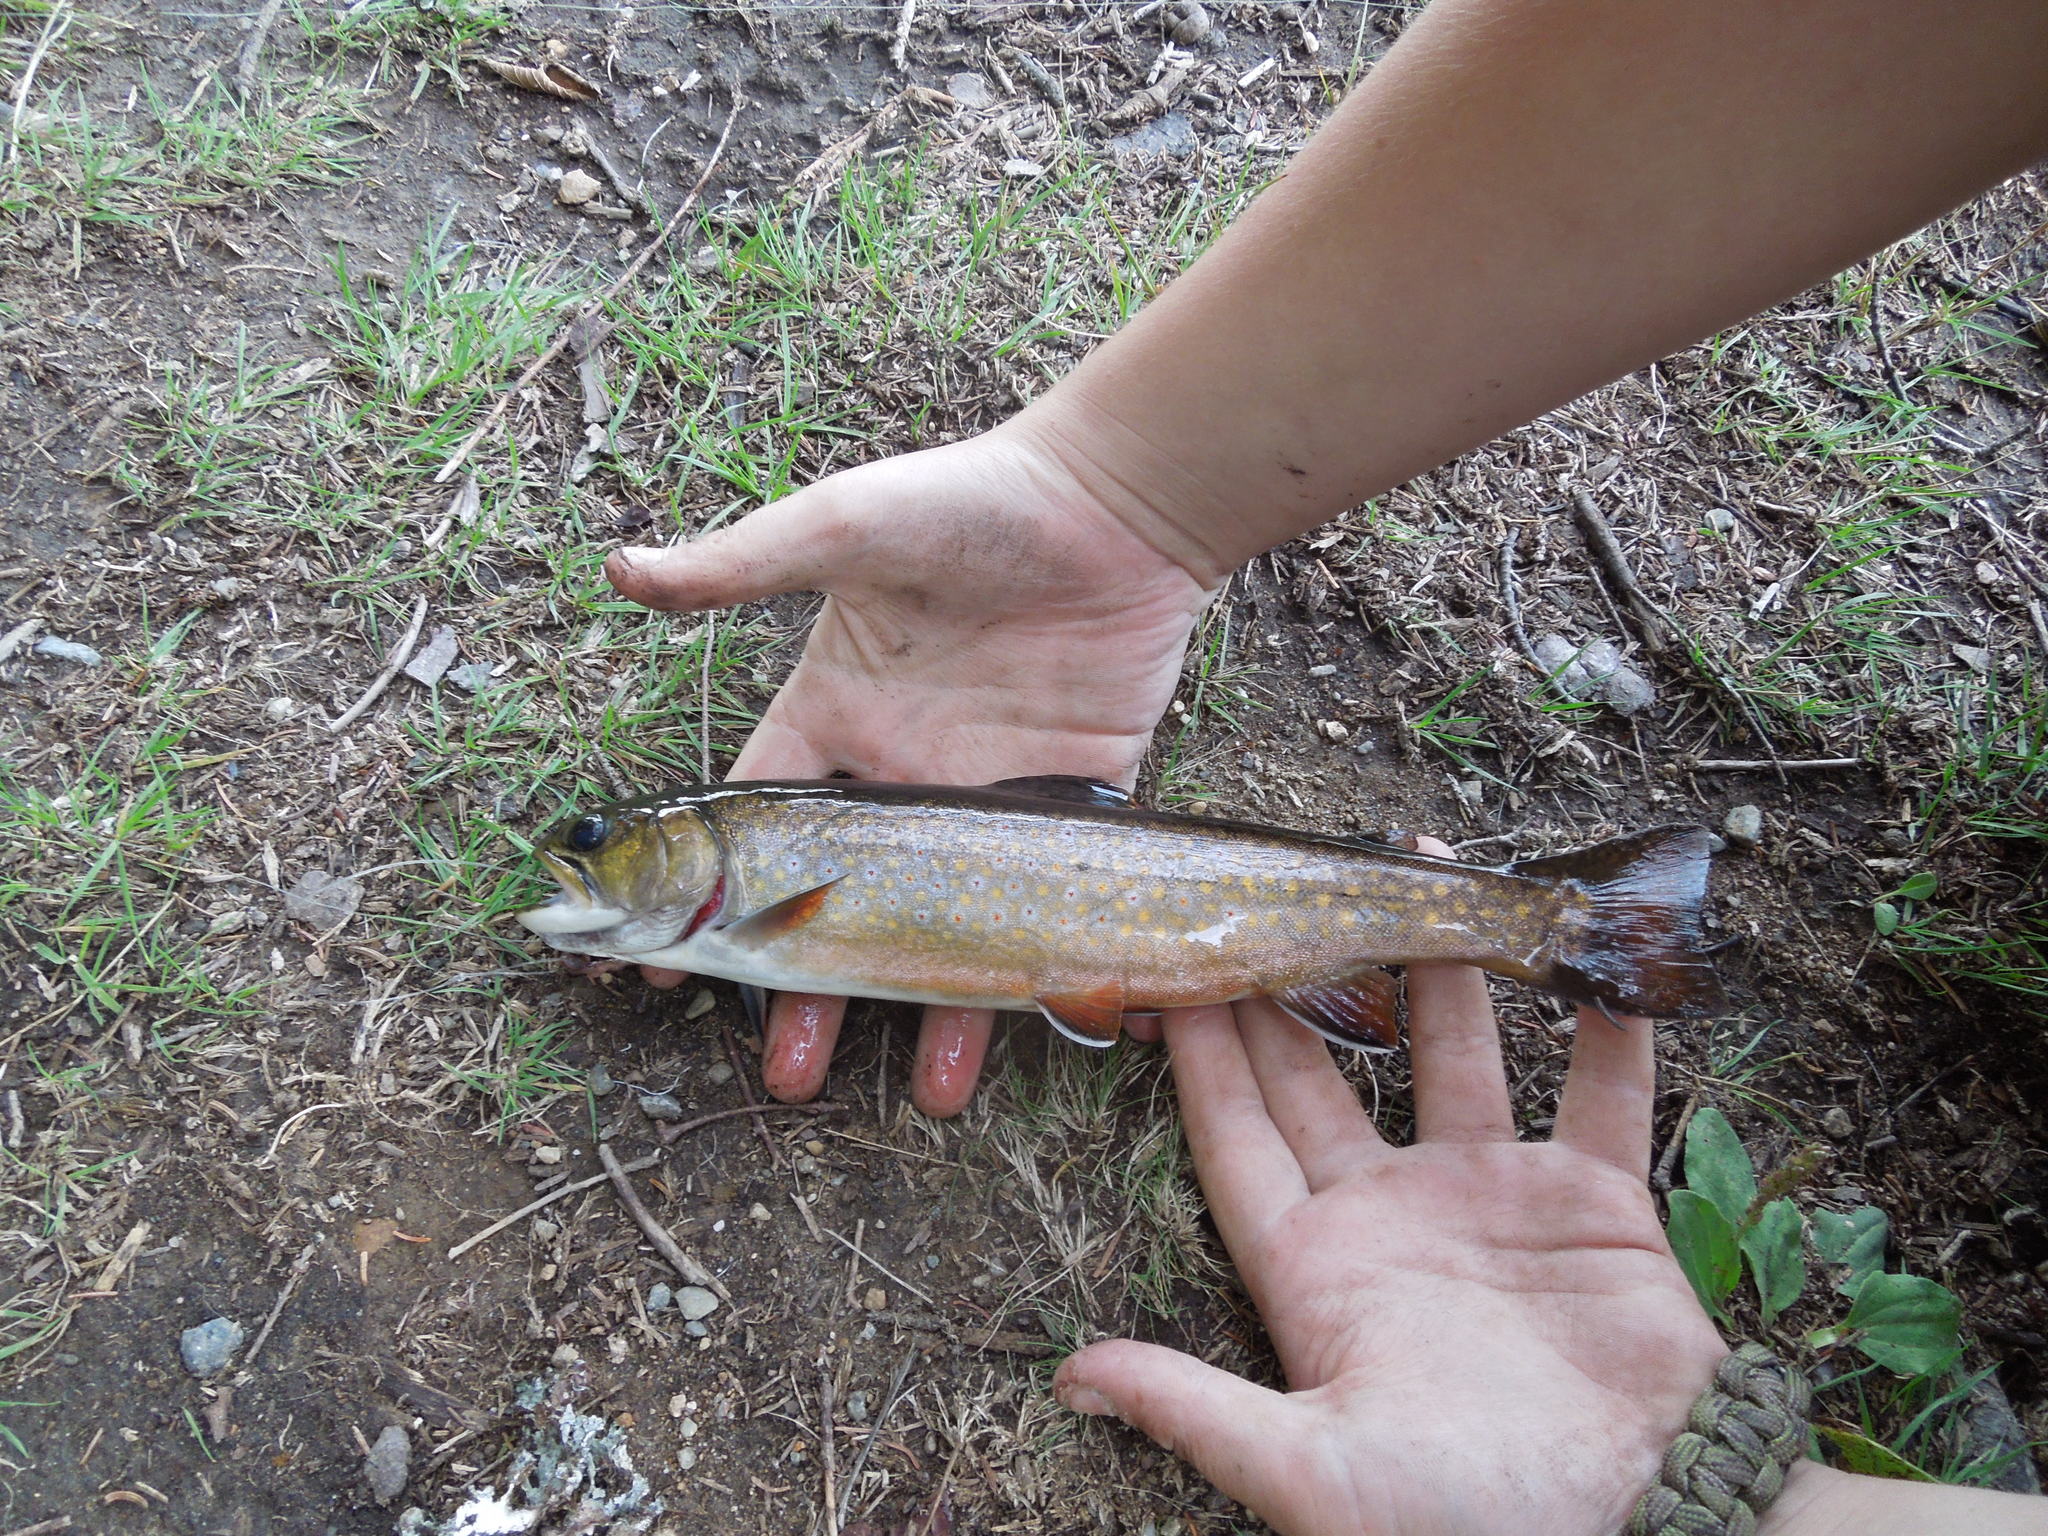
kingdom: Animalia
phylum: Chordata
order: Salmoniformes
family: Salmonidae
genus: Salvelinus
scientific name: Salvelinus fontinalis
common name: Brook trout
